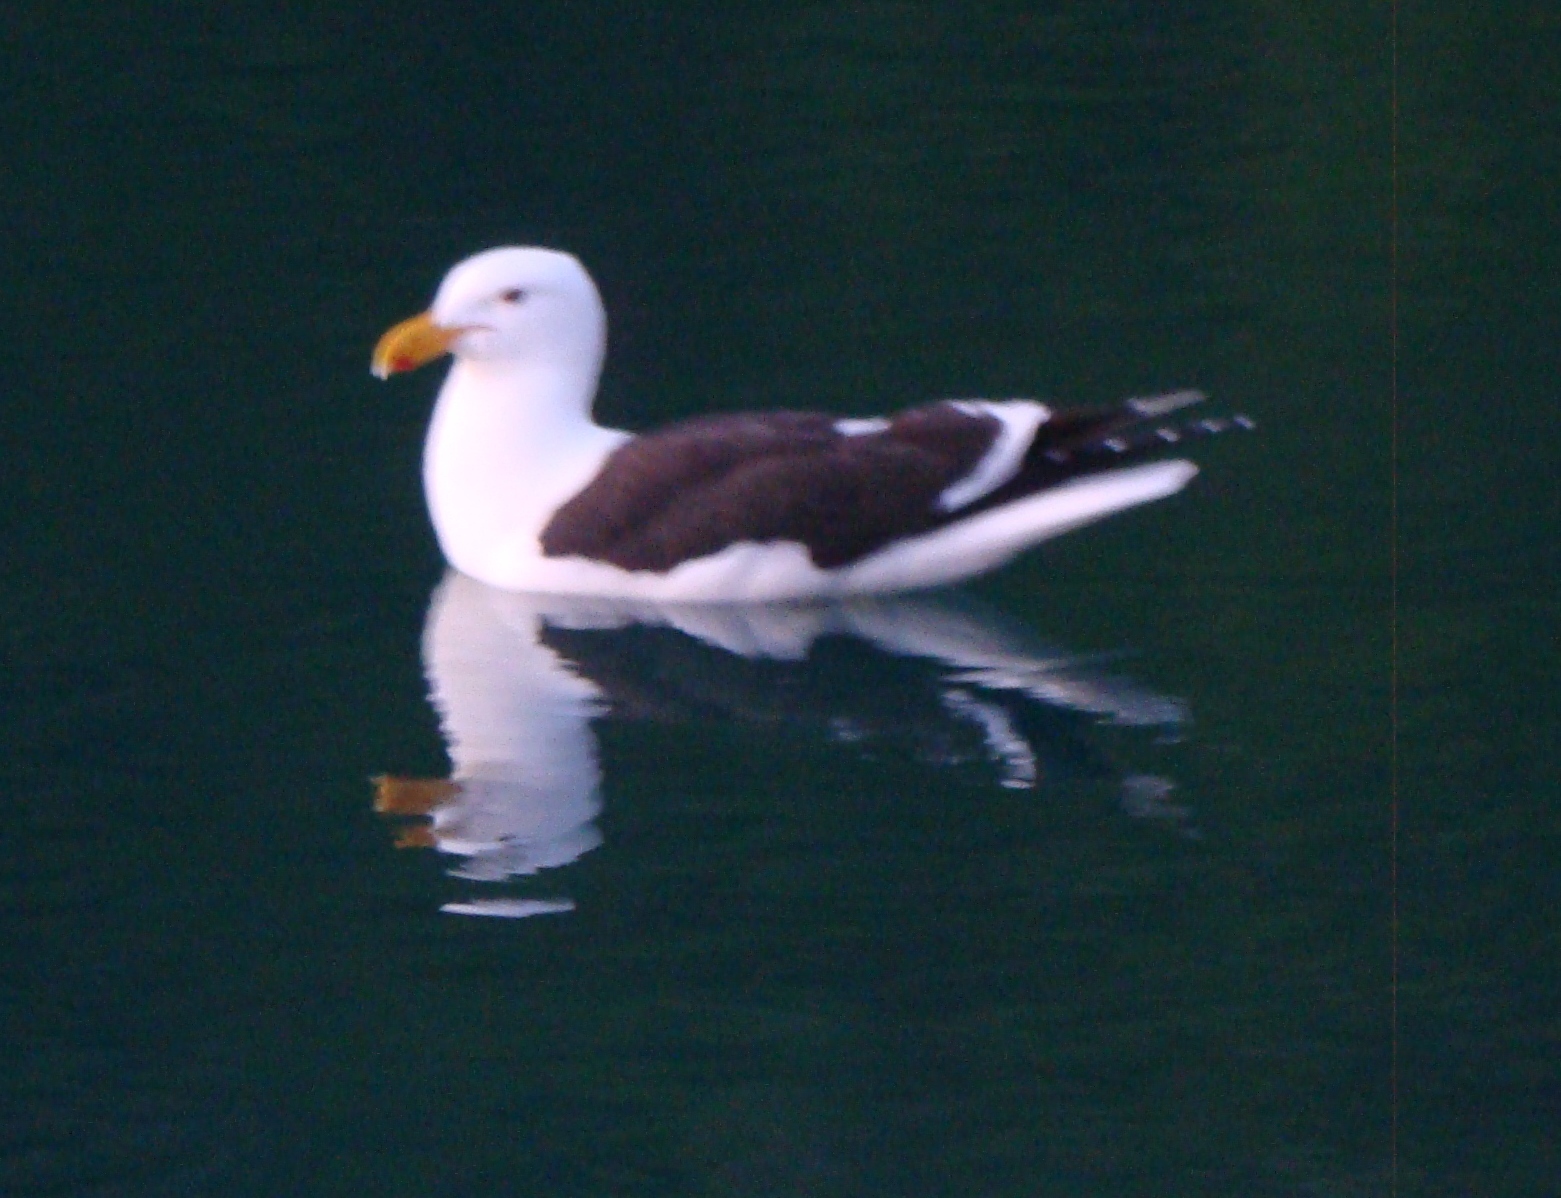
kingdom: Animalia
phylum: Chordata
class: Aves
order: Charadriiformes
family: Laridae
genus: Larus
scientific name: Larus dominicanus
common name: Kelp gull
